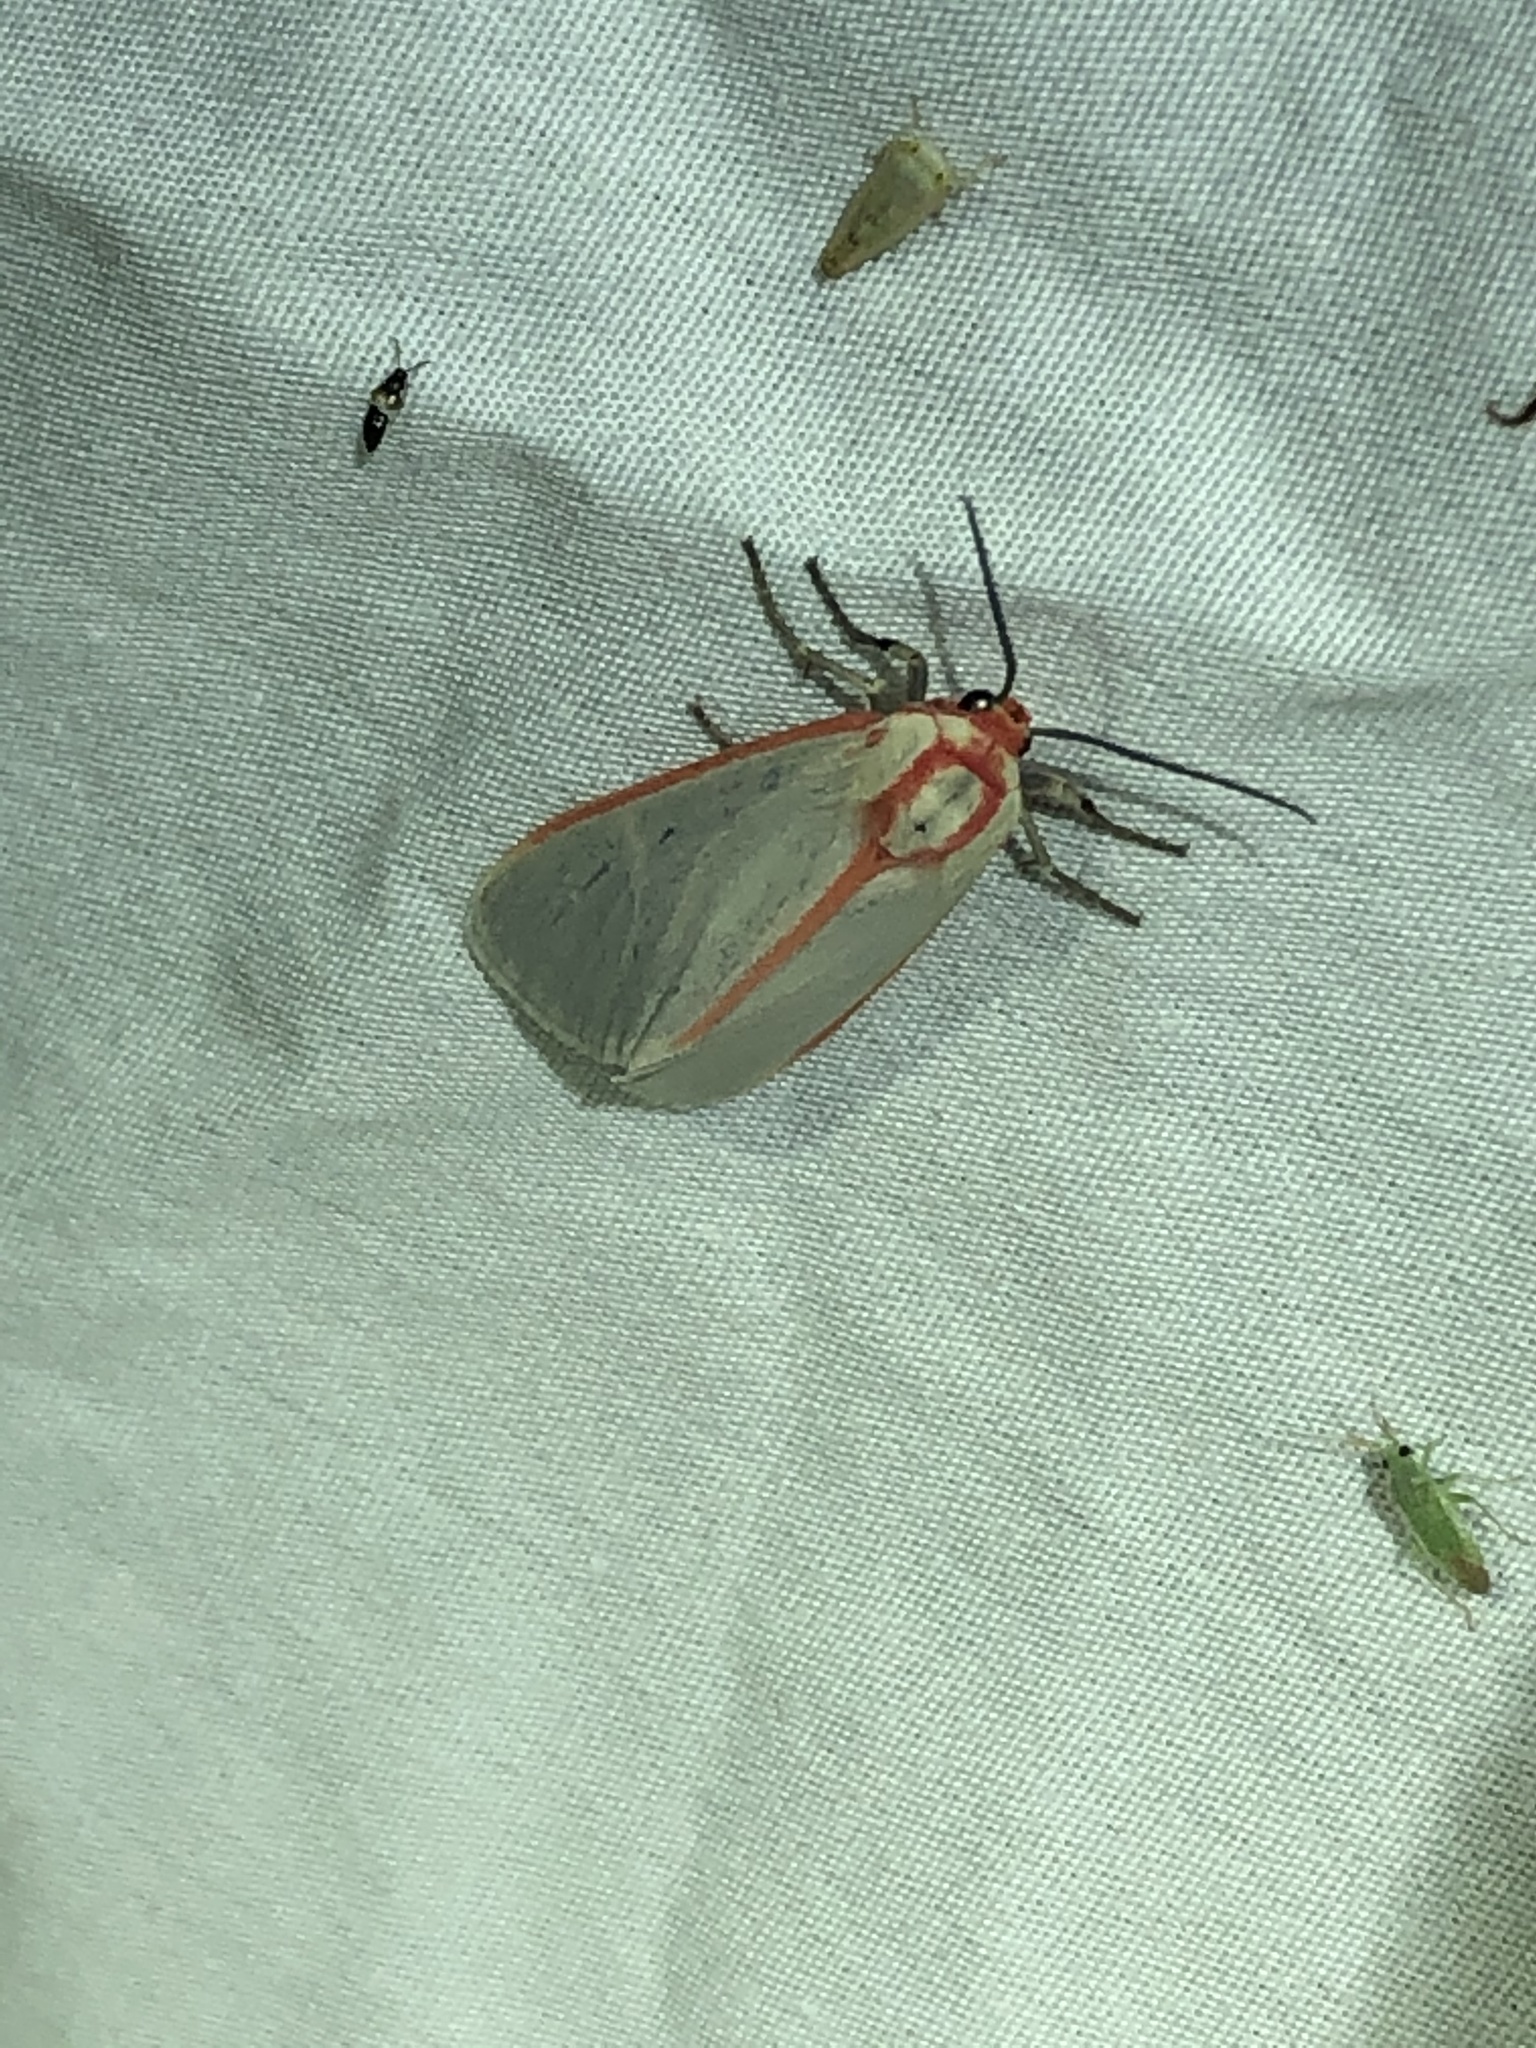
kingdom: Animalia
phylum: Arthropoda
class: Insecta
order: Lepidoptera
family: Erebidae
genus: Pygarctia
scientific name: Pygarctia spraguei
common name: Sprague's pygarctica
